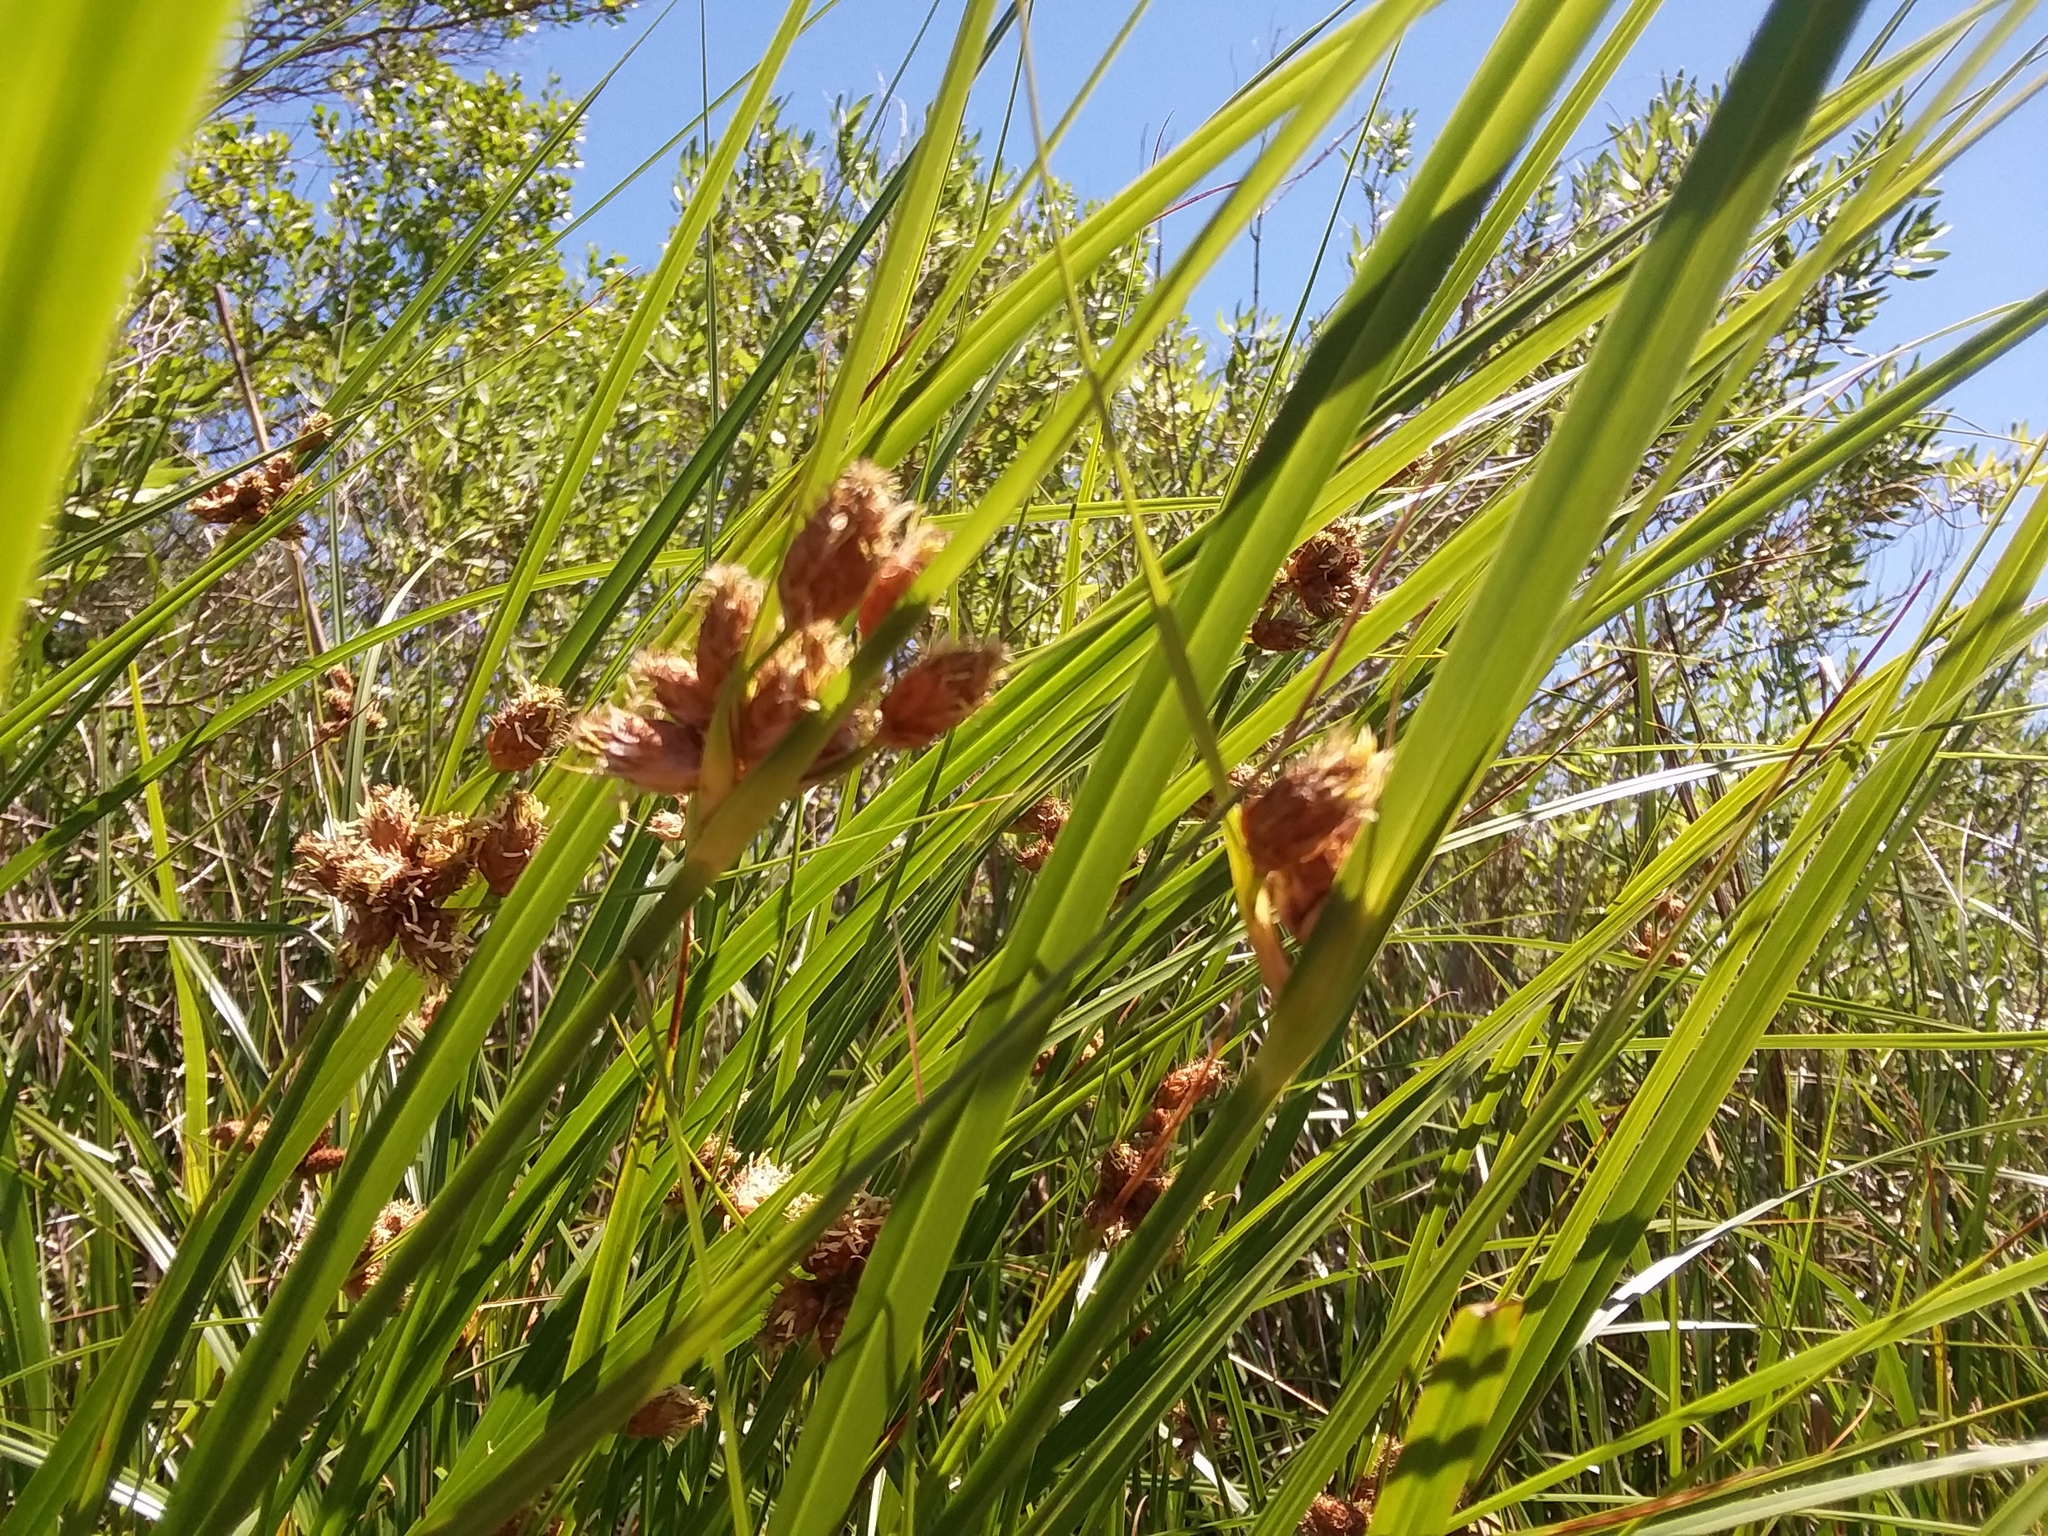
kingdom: Plantae
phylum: Tracheophyta
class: Liliopsida
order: Poales
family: Cyperaceae
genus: Bolboschoenus
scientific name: Bolboschoenus robustus
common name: Seacoast bulrush
